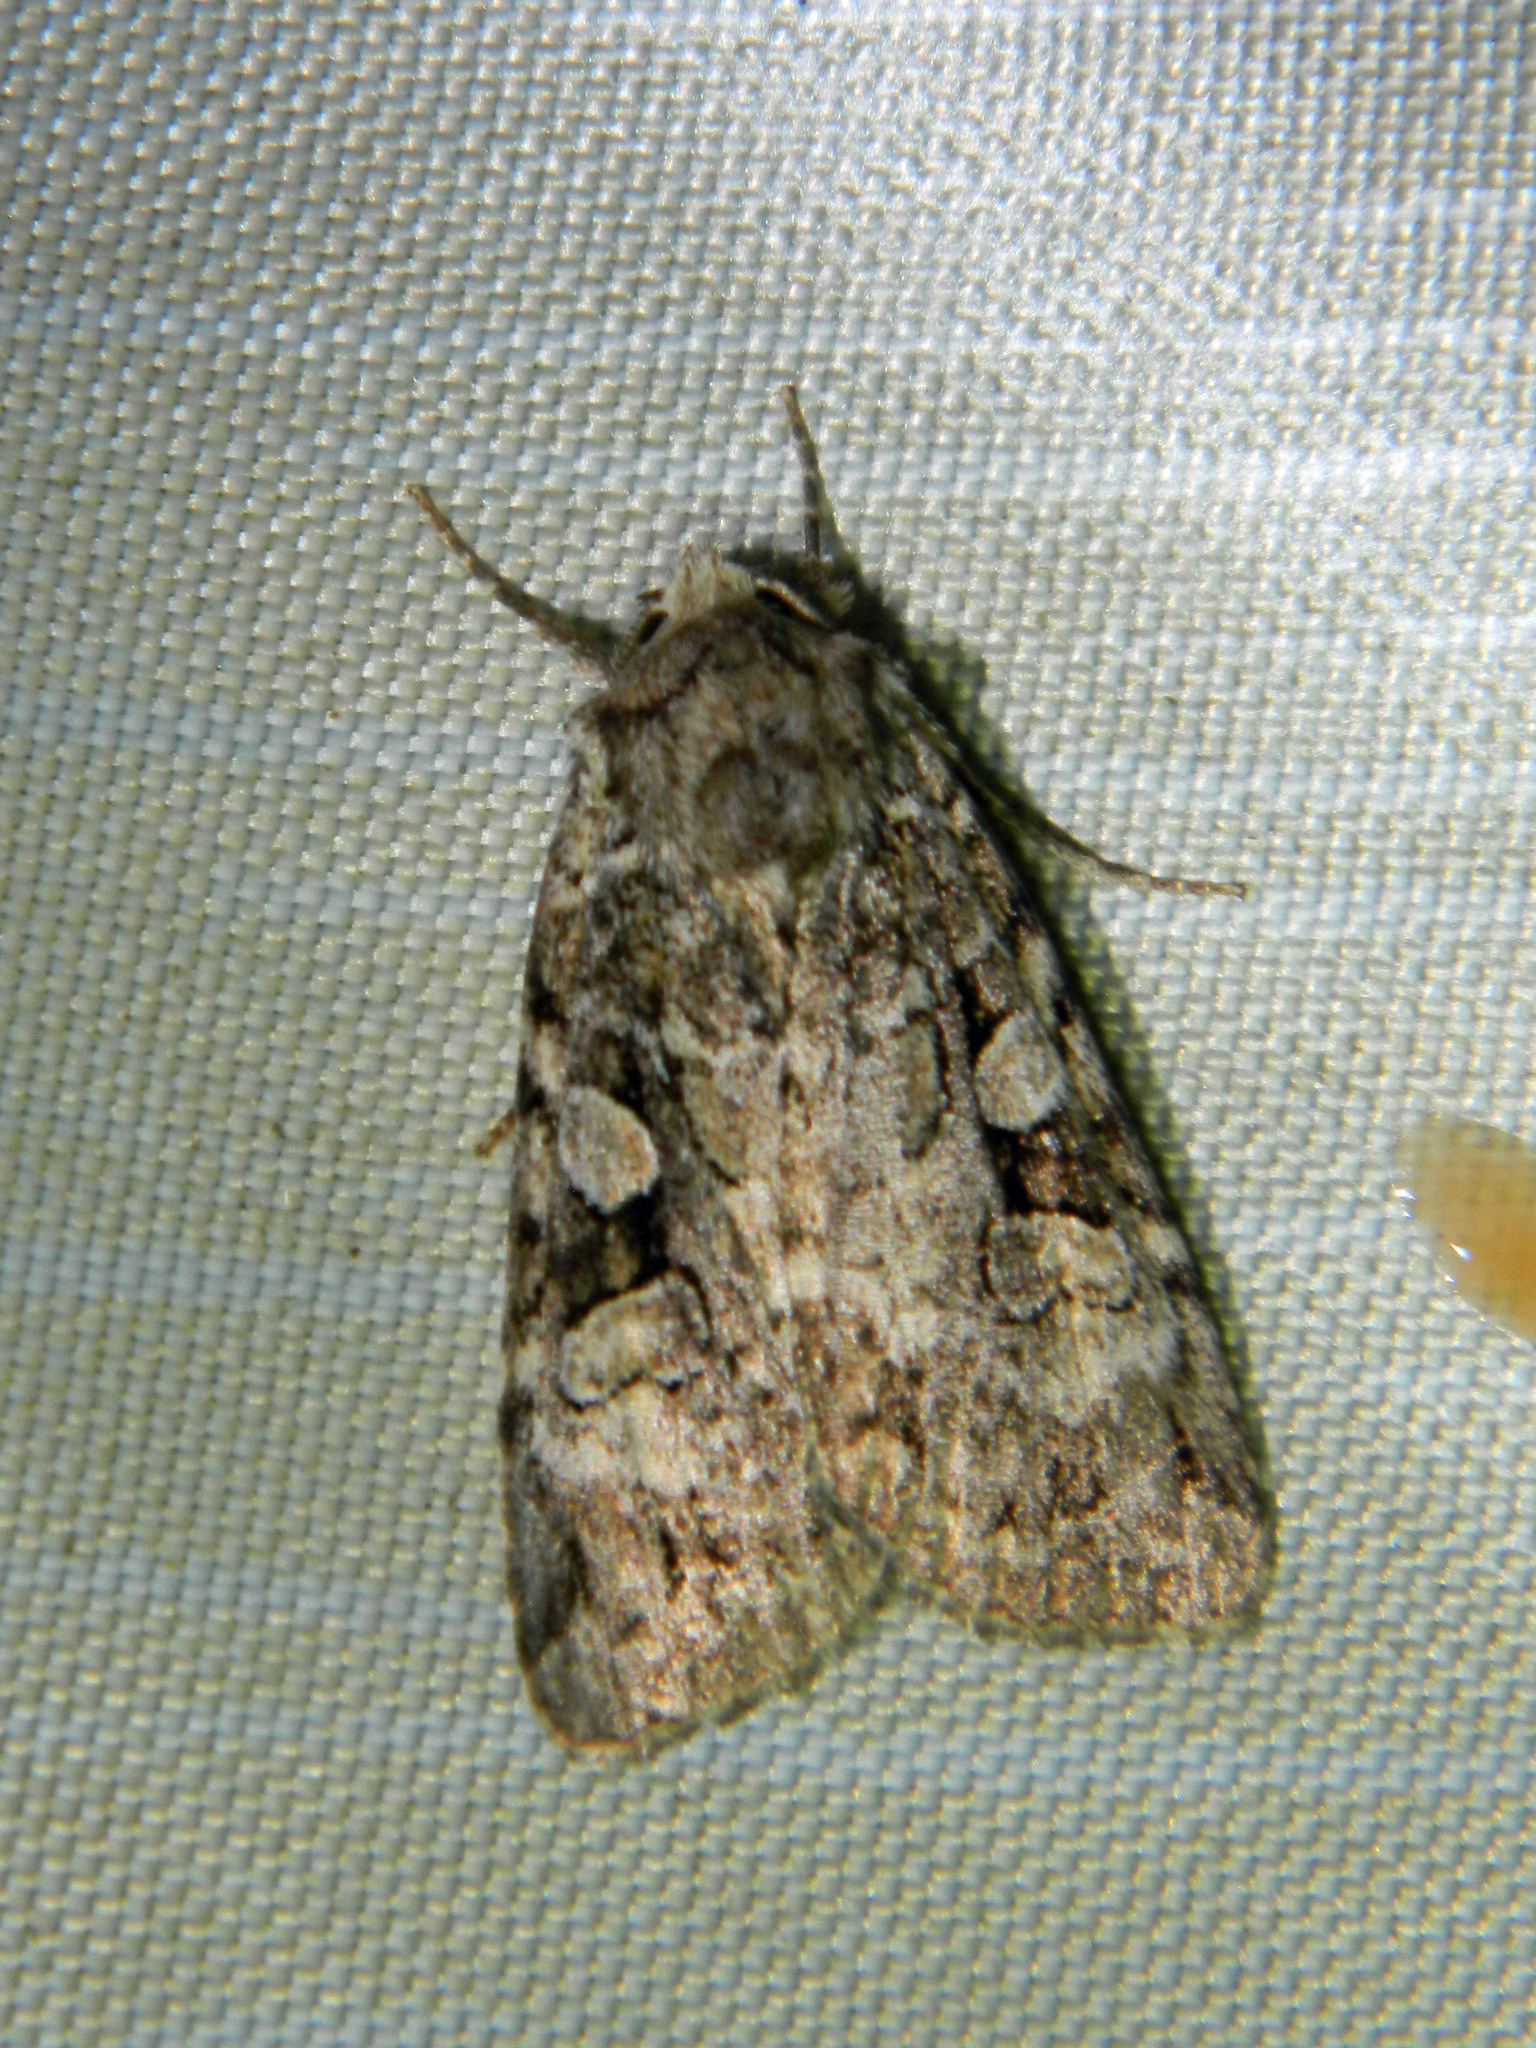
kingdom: Animalia
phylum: Arthropoda
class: Insecta
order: Lepidoptera
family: Noctuidae
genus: Anaplectoides
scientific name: Anaplectoides pressus
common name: Dappled dart
